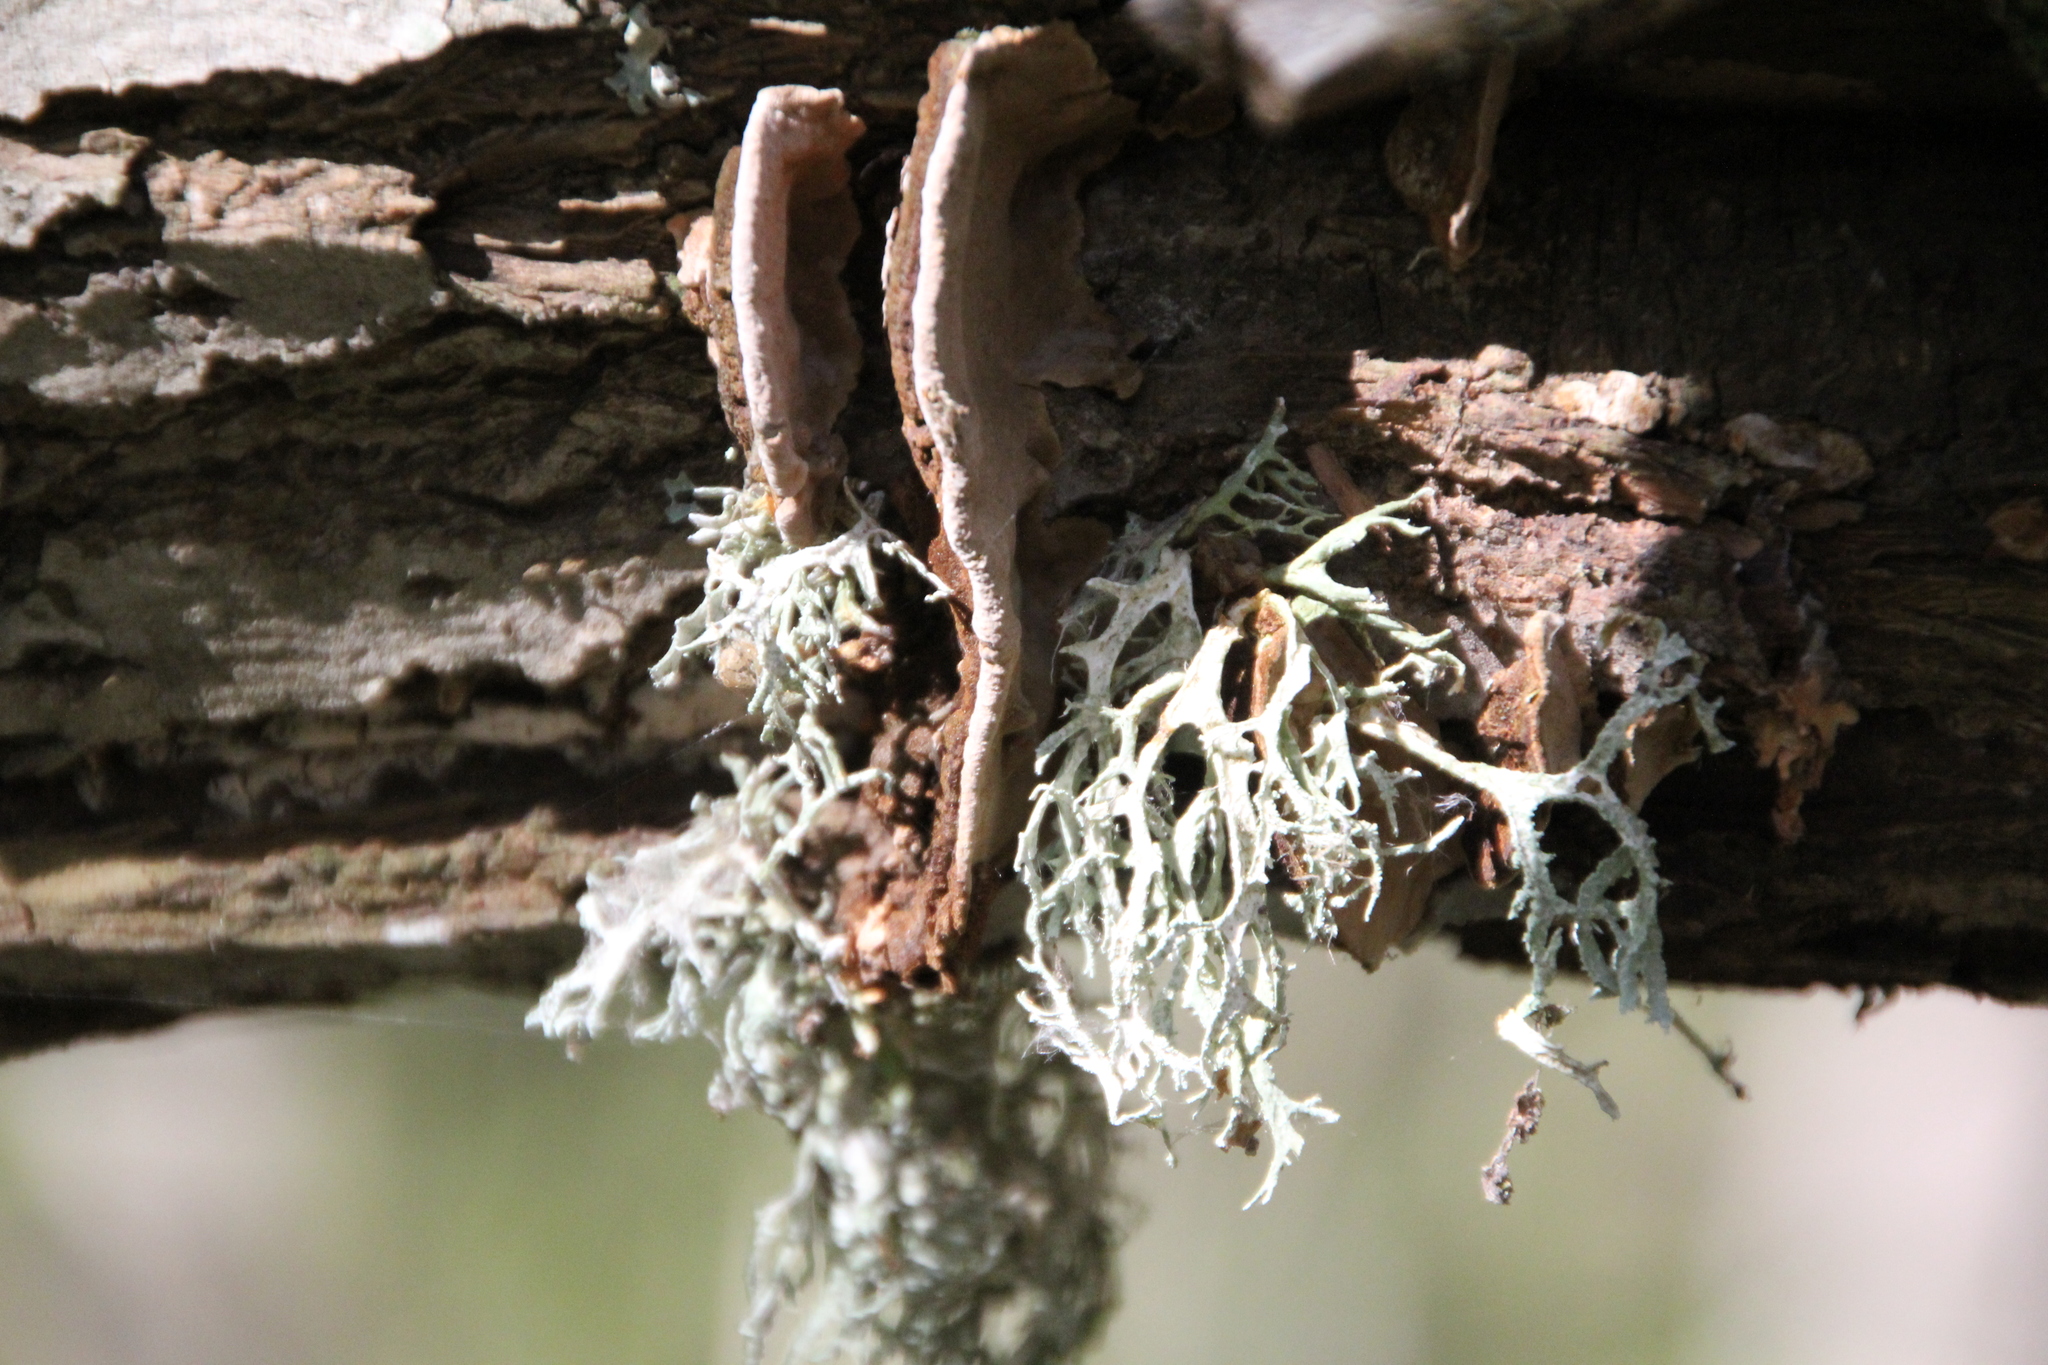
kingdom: Fungi
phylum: Ascomycota
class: Lecanoromycetes
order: Lecanorales
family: Parmeliaceae
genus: Evernia
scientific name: Evernia prunastri
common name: Oak moss
